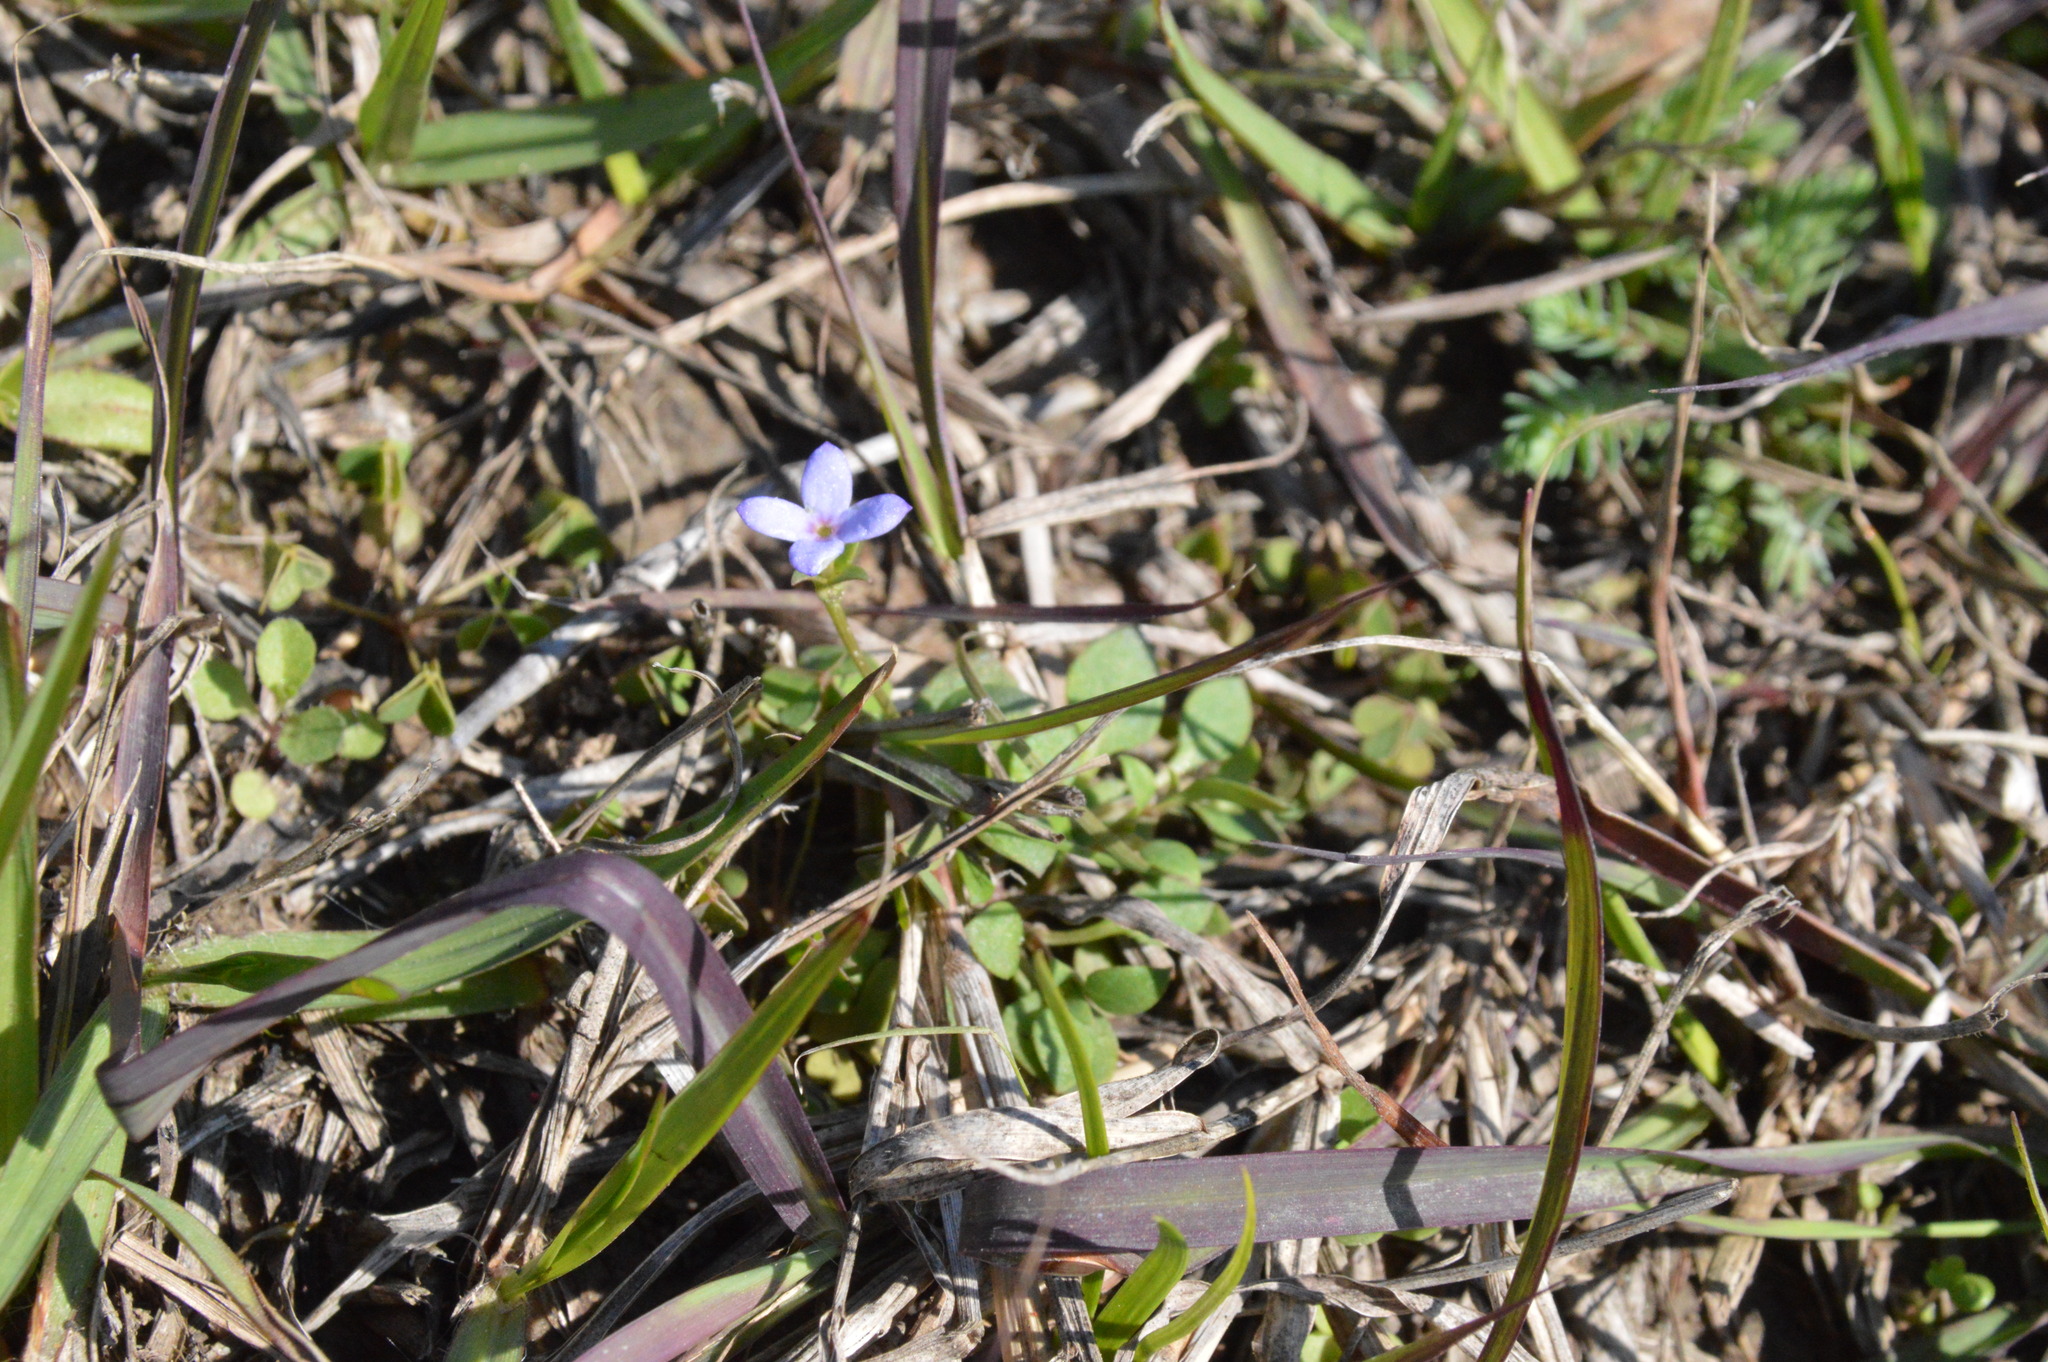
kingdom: Plantae
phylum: Tracheophyta
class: Magnoliopsida
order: Gentianales
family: Rubiaceae
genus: Houstonia
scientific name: Houstonia pusilla
